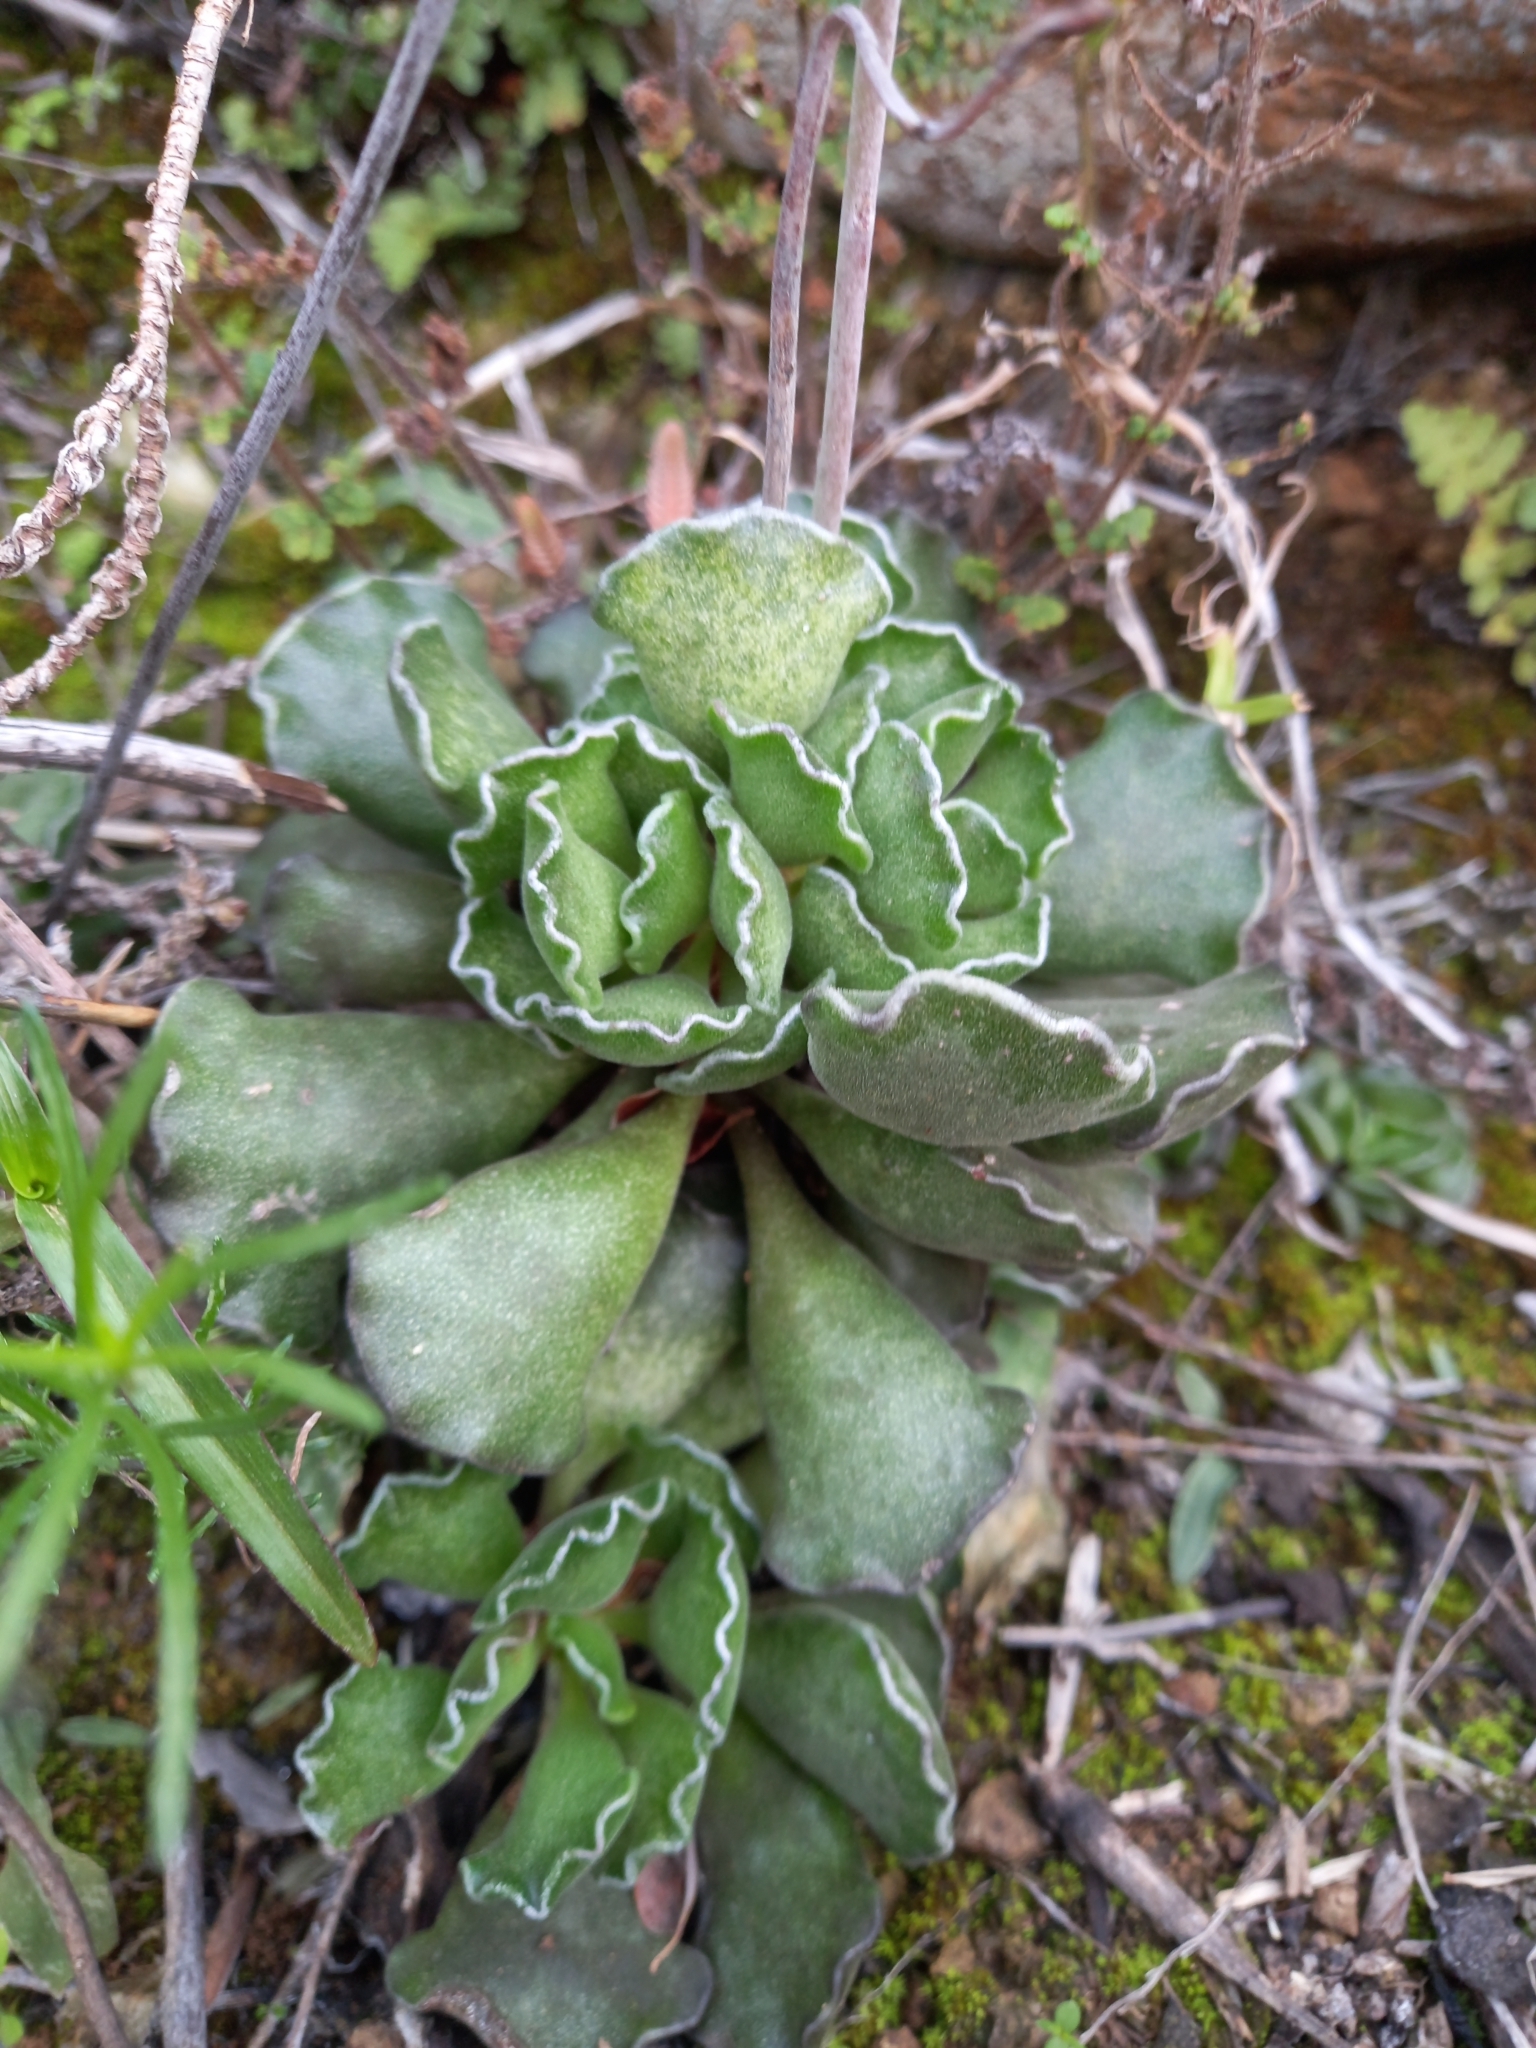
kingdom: Plantae
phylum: Tracheophyta
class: Magnoliopsida
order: Saxifragales
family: Crassulaceae
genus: Adromischus
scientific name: Adromischus cristatus
